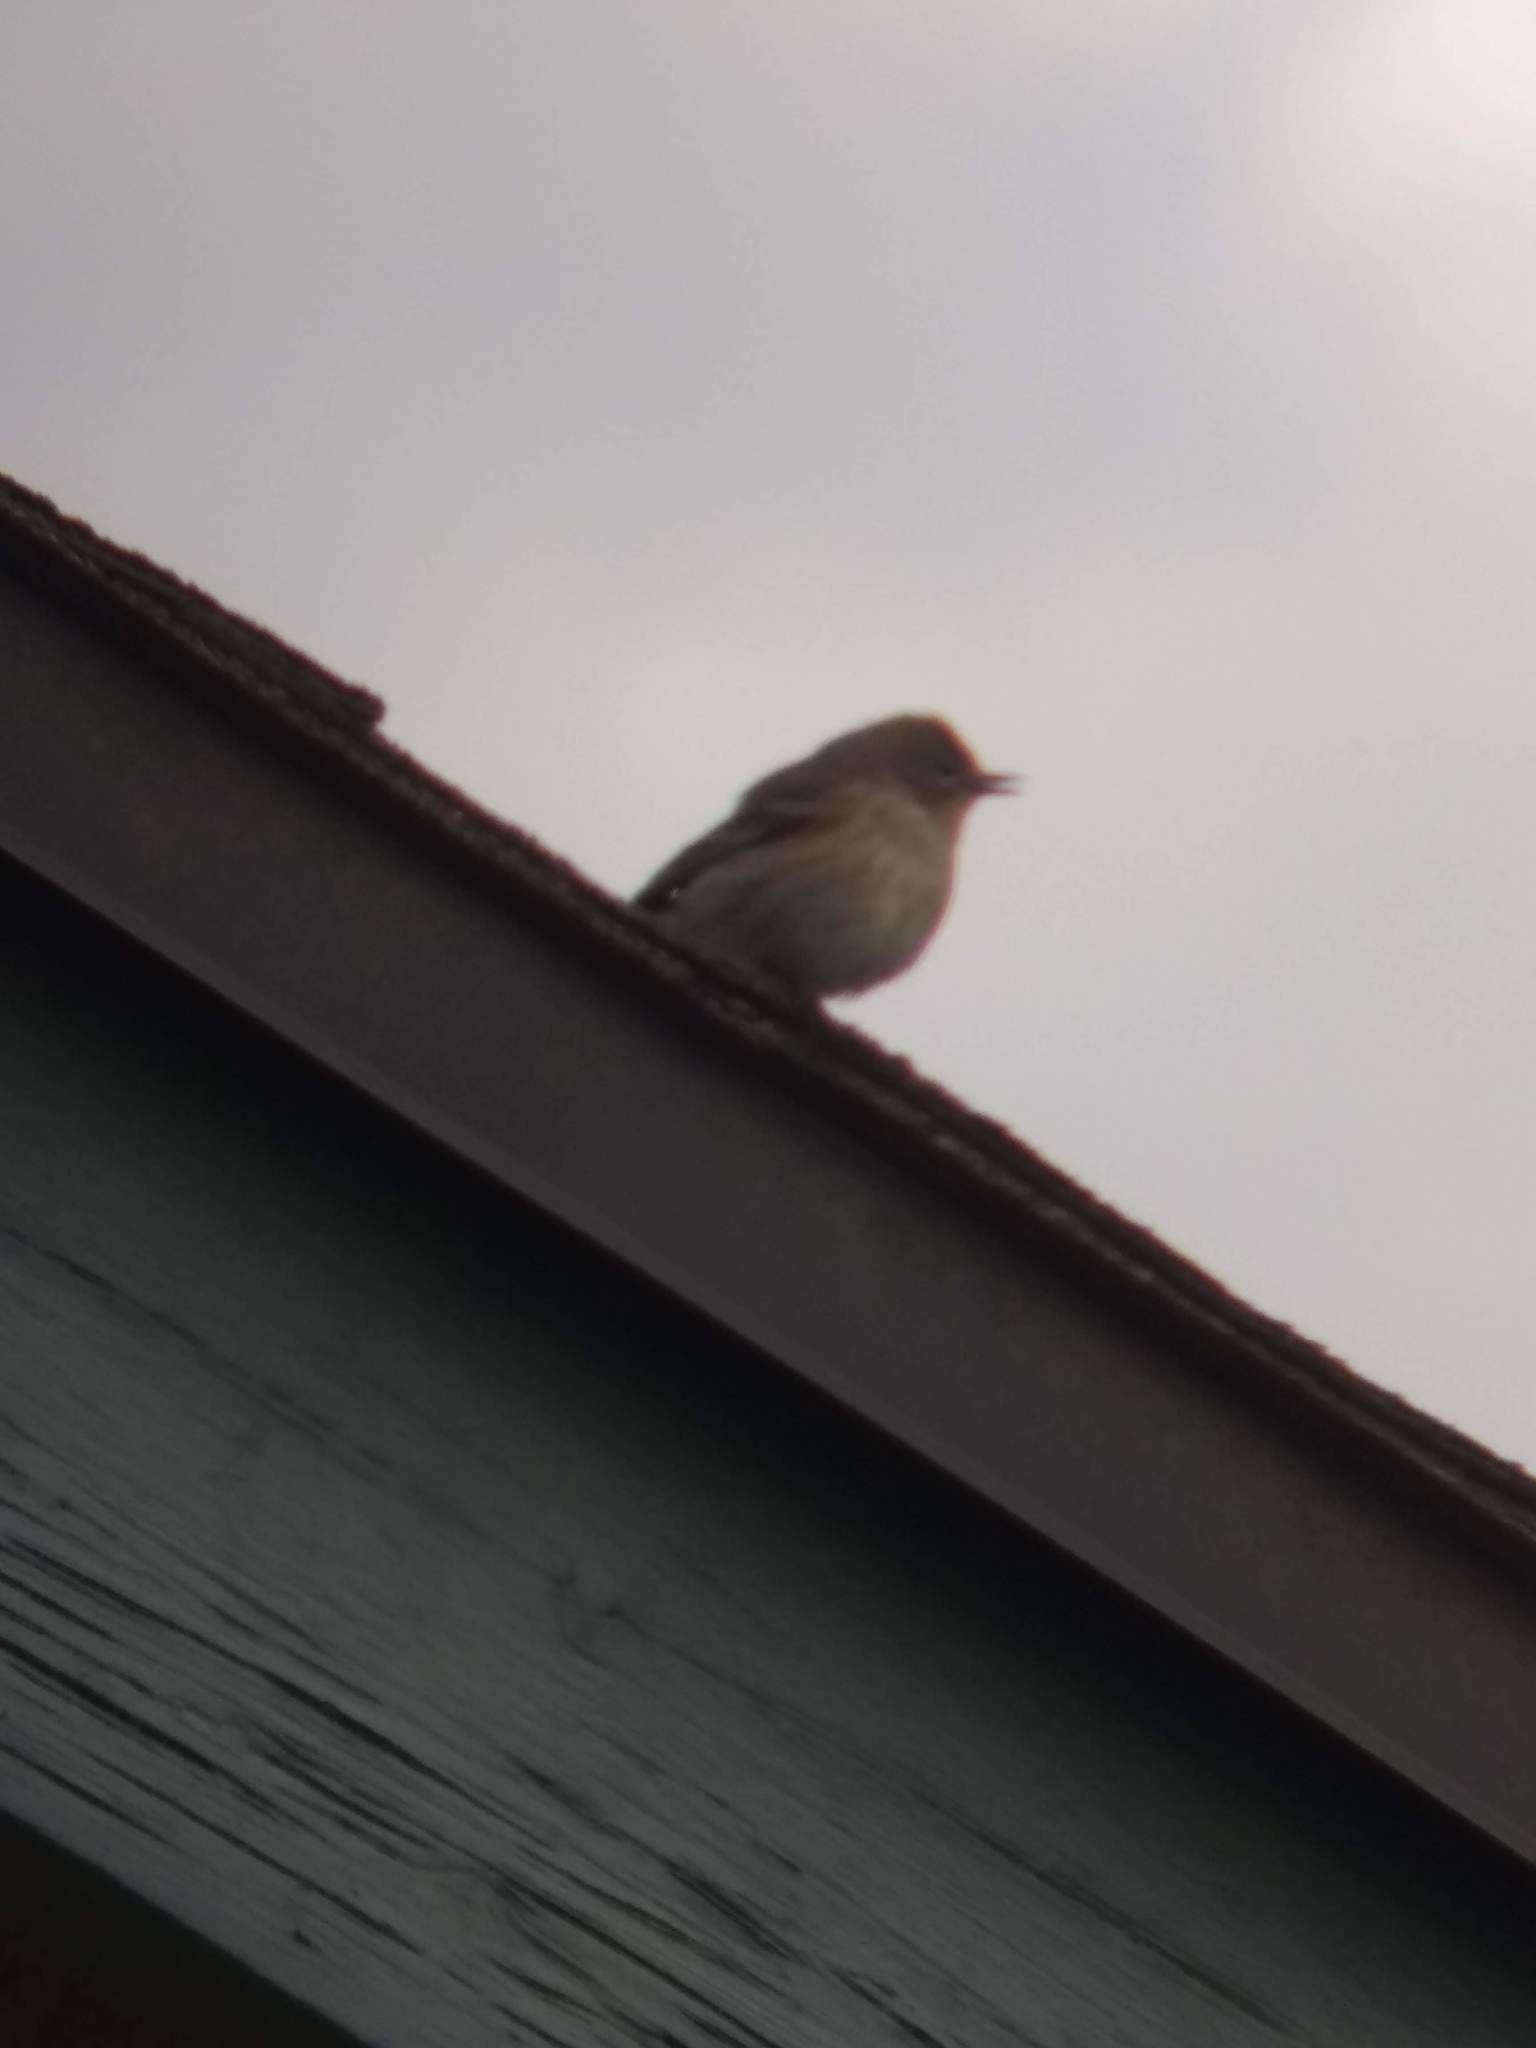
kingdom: Animalia
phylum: Chordata
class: Aves
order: Passeriformes
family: Parulidae
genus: Setophaga
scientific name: Setophaga coronata
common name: Myrtle warbler
